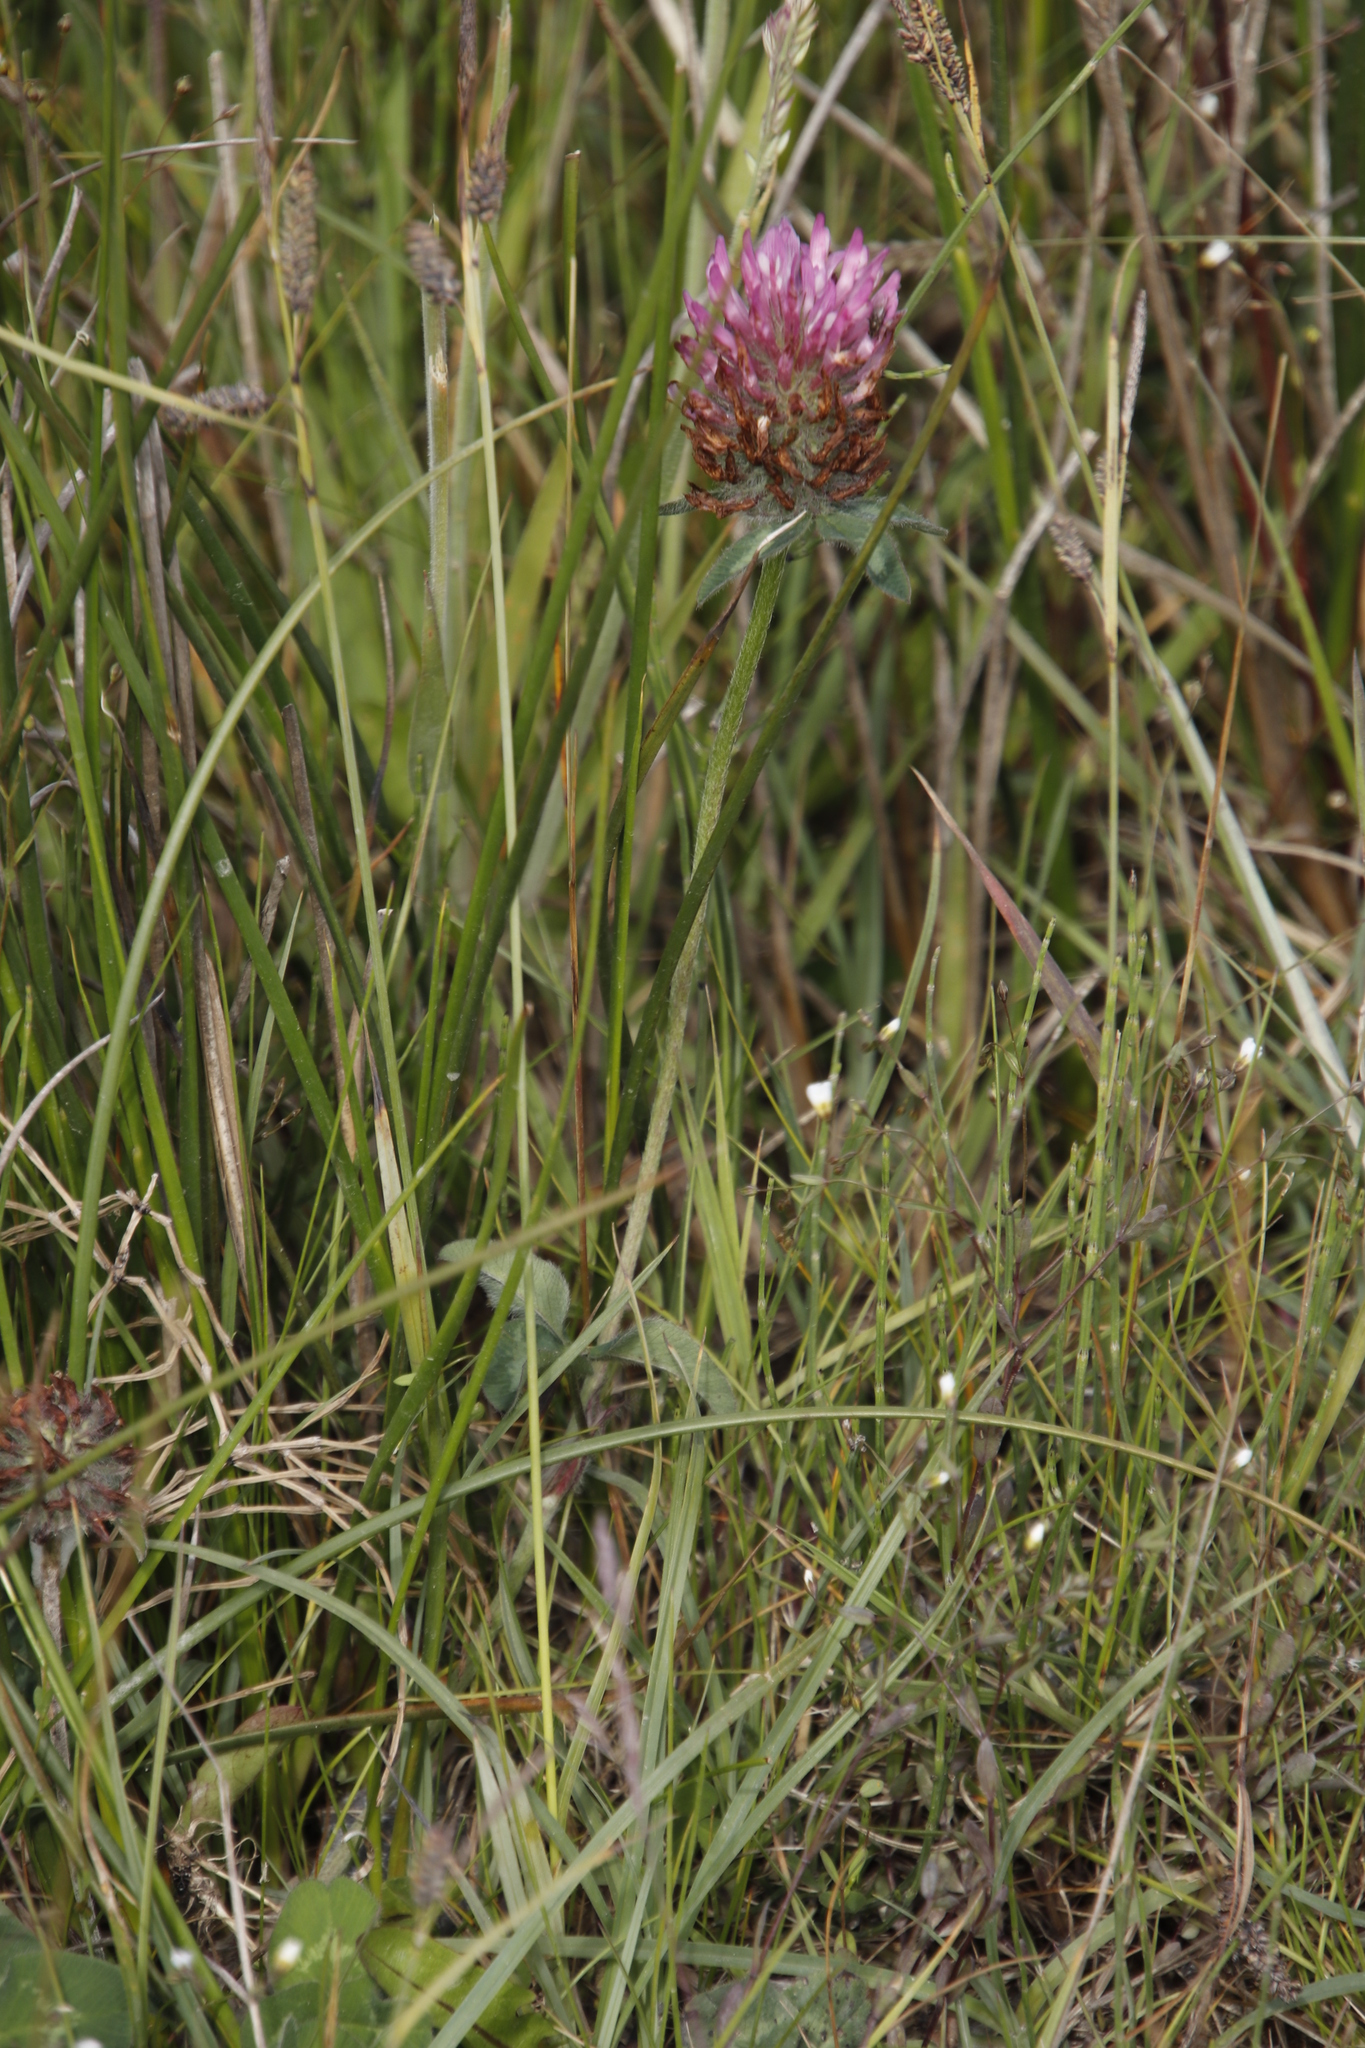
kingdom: Plantae
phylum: Tracheophyta
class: Magnoliopsida
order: Fabales
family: Fabaceae
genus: Trifolium
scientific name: Trifolium pratense
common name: Red clover
